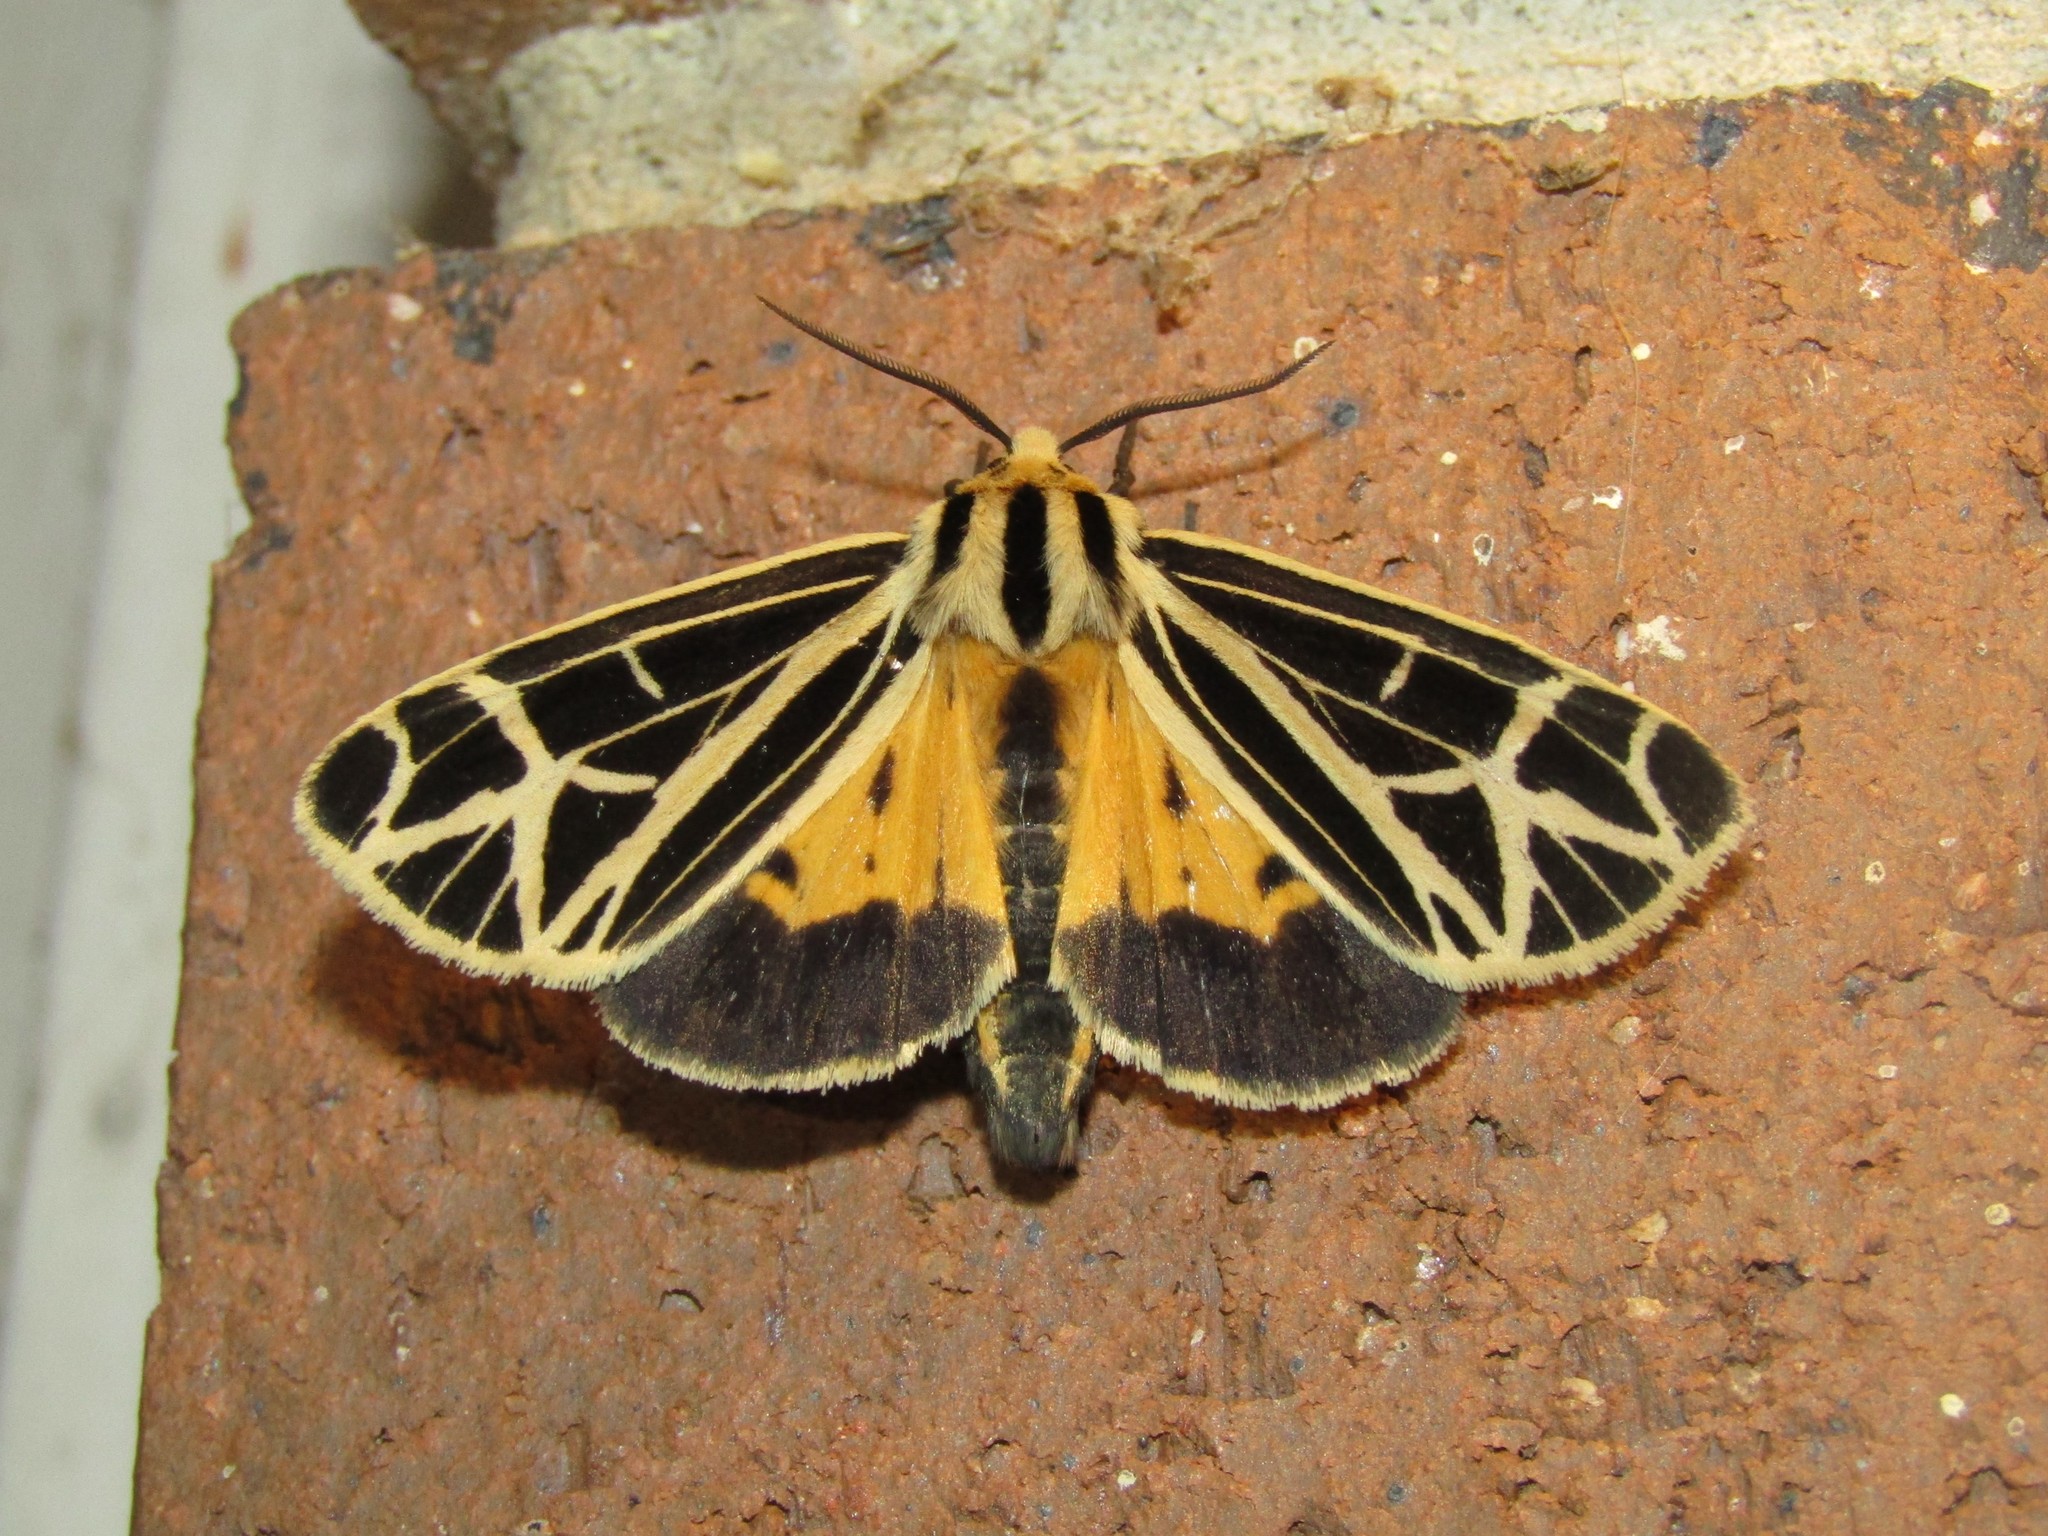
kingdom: Animalia
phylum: Arthropoda
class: Insecta
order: Lepidoptera
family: Erebidae
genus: Apantesis
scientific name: Apantesis
